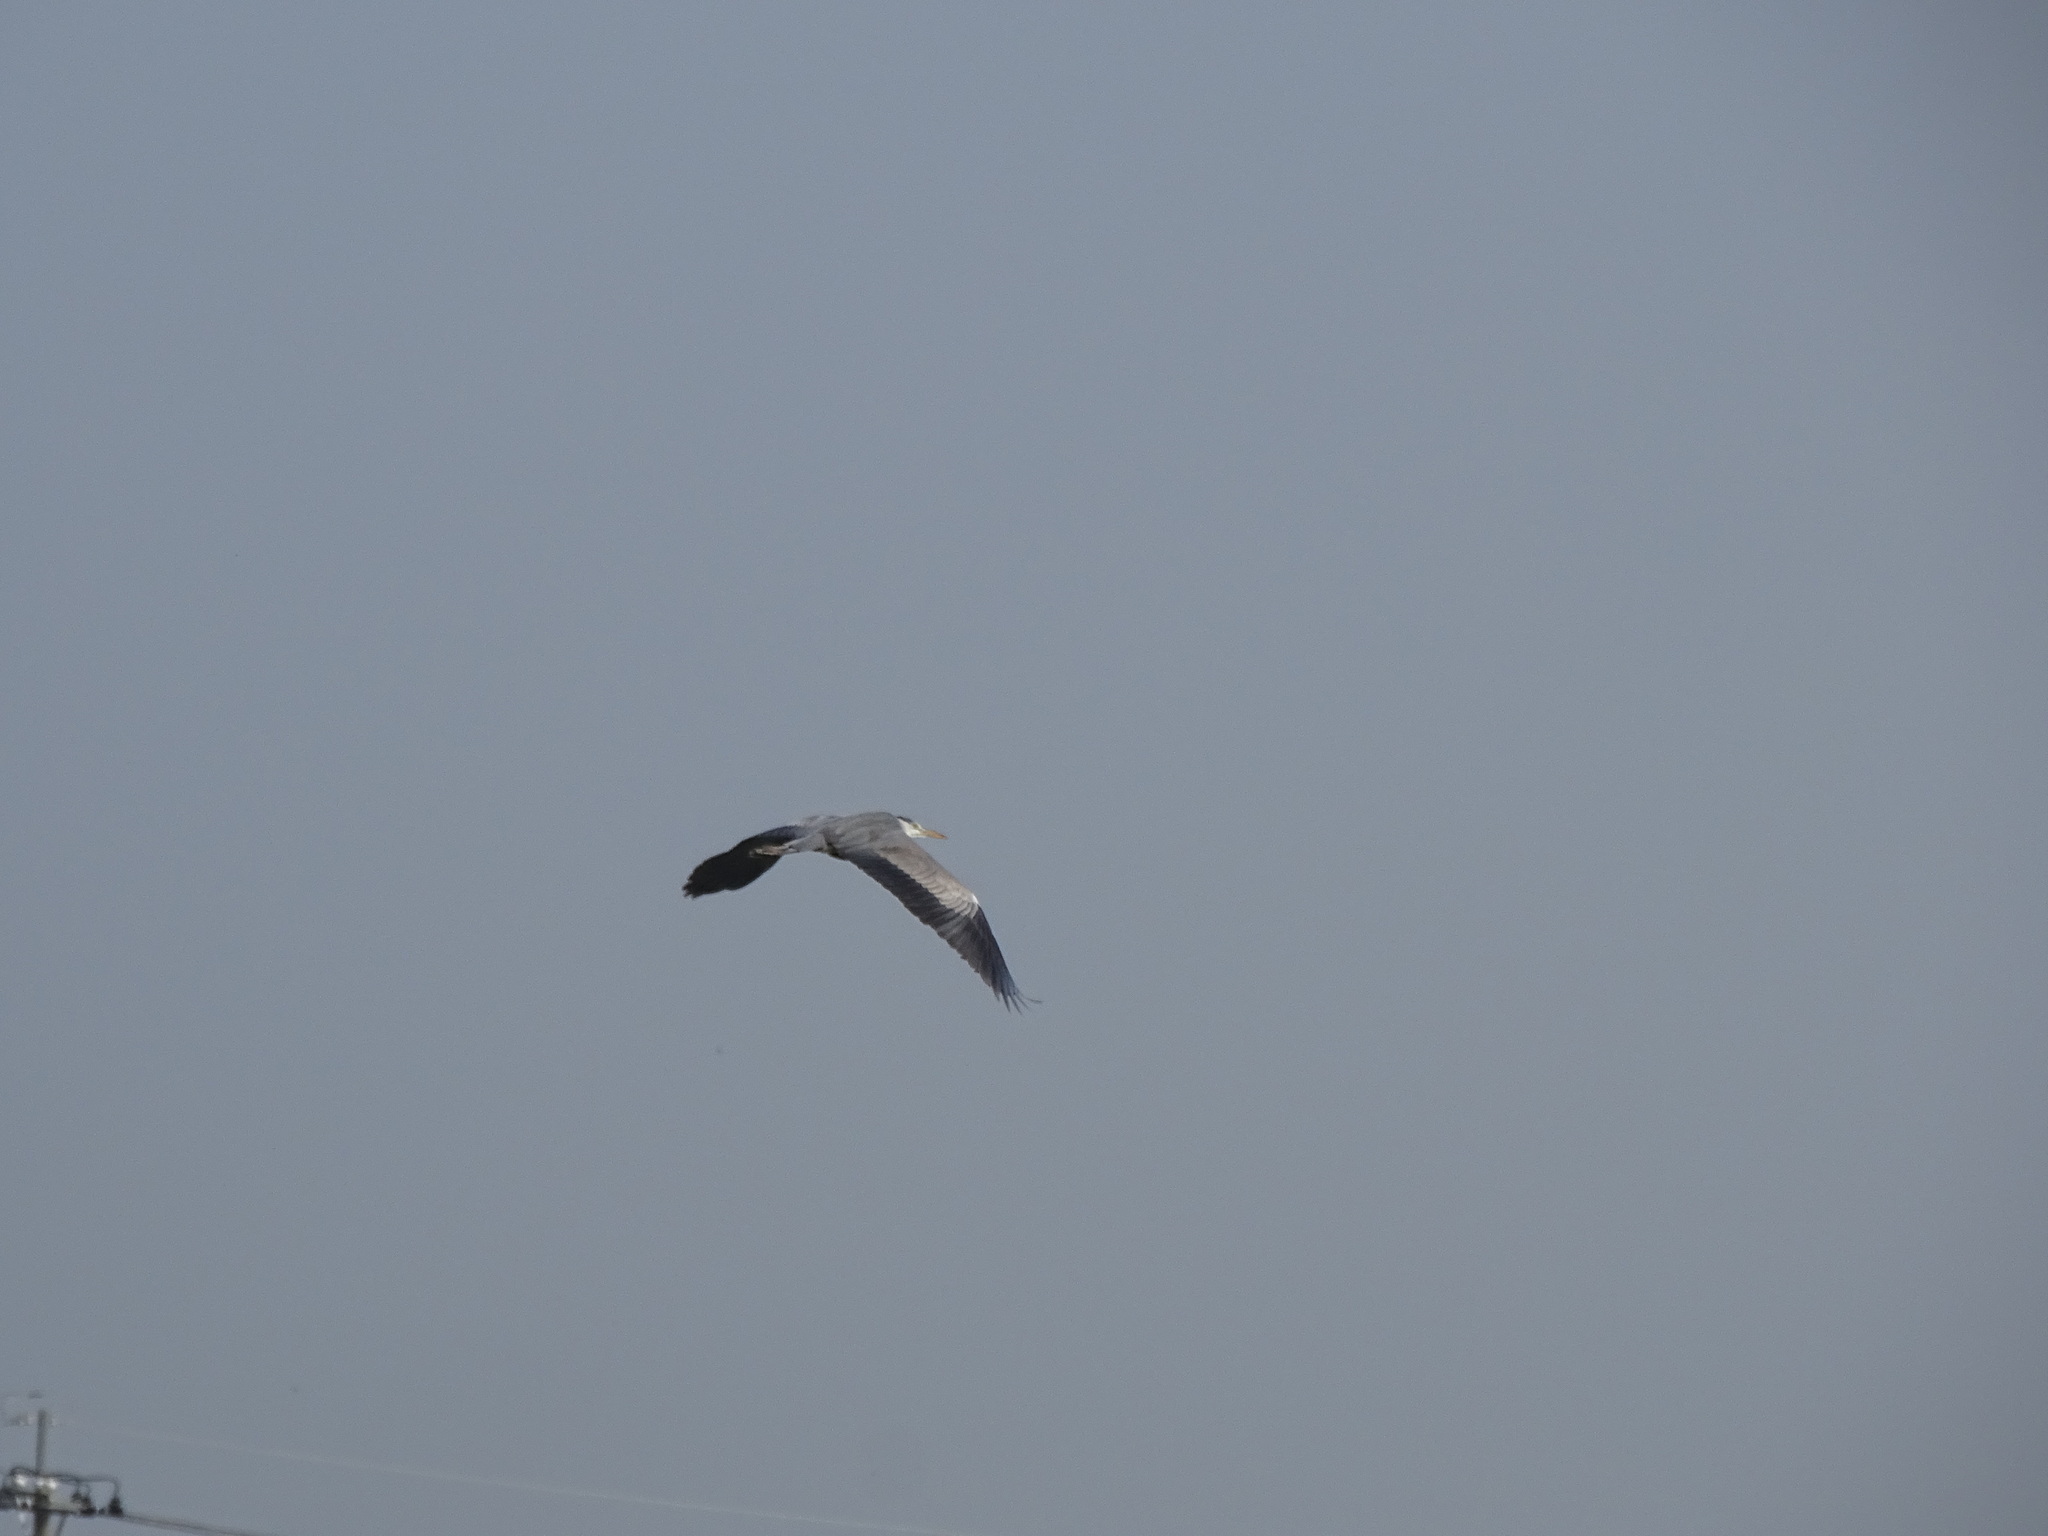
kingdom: Animalia
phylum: Chordata
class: Aves
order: Pelecaniformes
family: Ardeidae
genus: Ardea
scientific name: Ardea cinerea
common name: Grey heron
